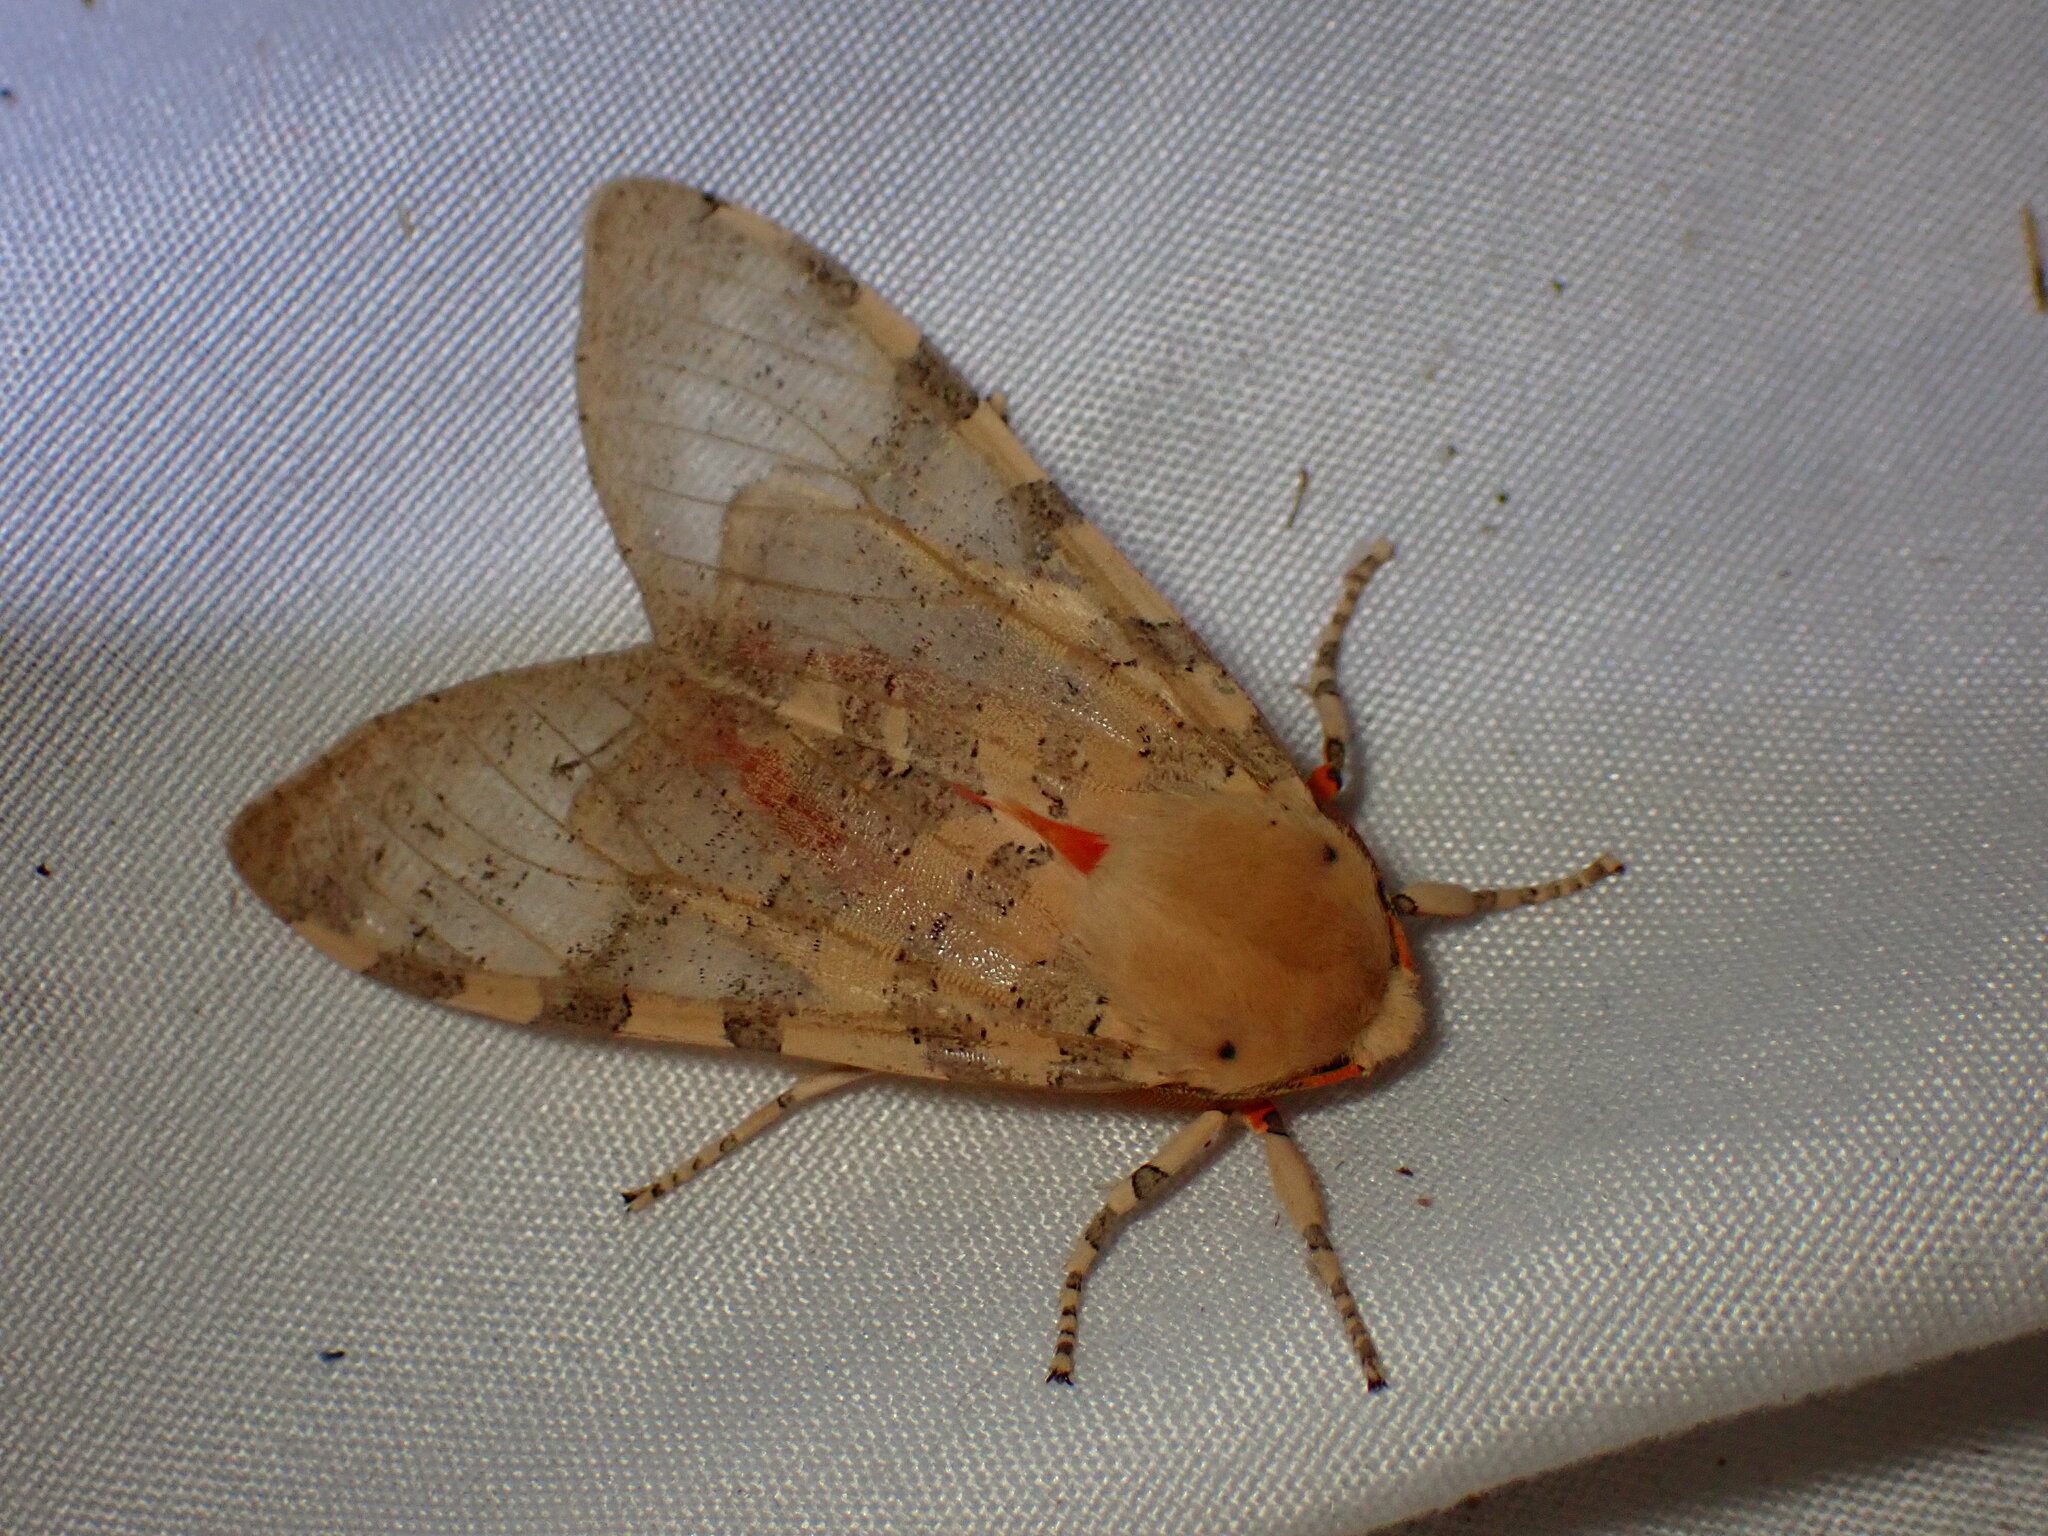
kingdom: Animalia
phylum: Arthropoda
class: Insecta
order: Lepidoptera
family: Erebidae
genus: Hemihyalea
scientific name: Hemihyalea edwardsii
